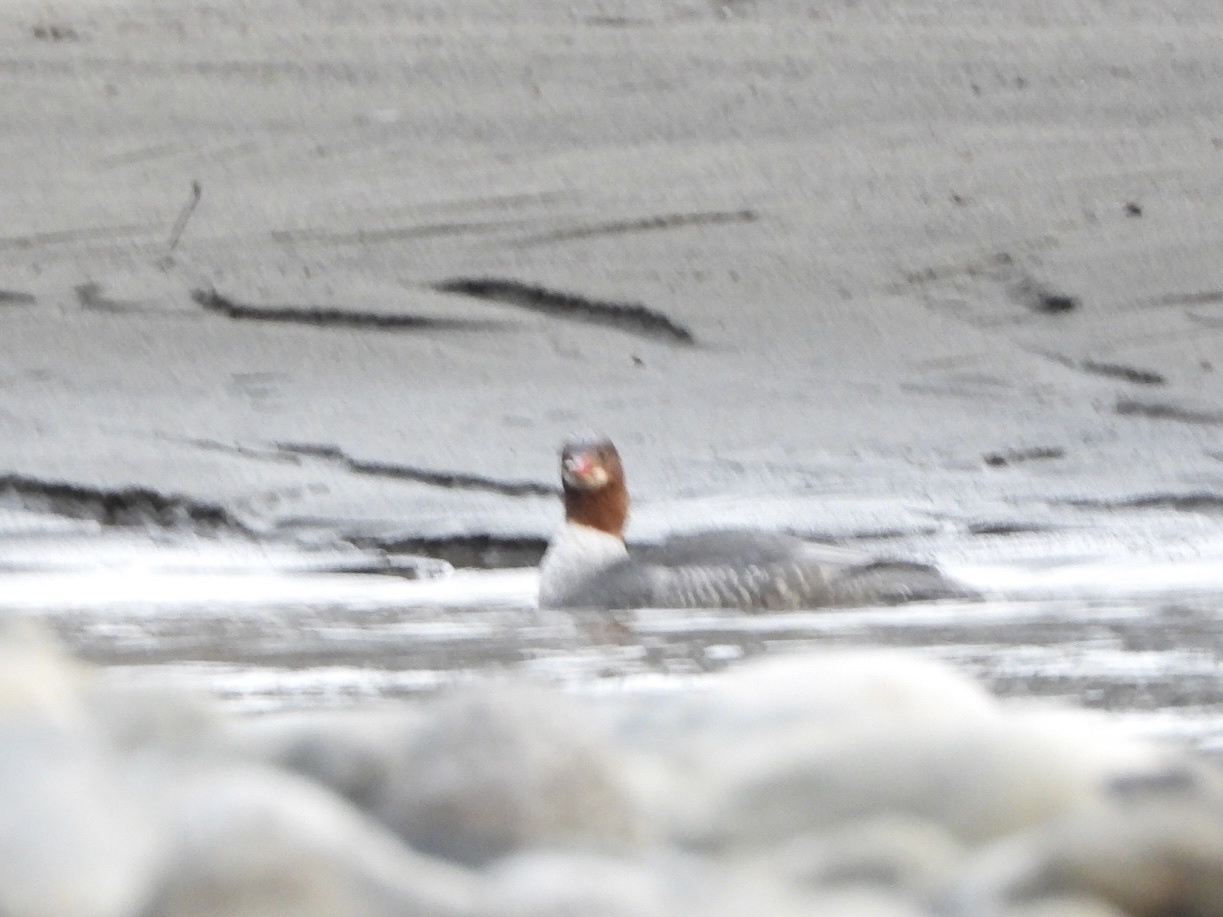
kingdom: Animalia
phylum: Chordata
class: Aves
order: Anseriformes
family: Anatidae
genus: Mergus
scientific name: Mergus merganser
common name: Common merganser
